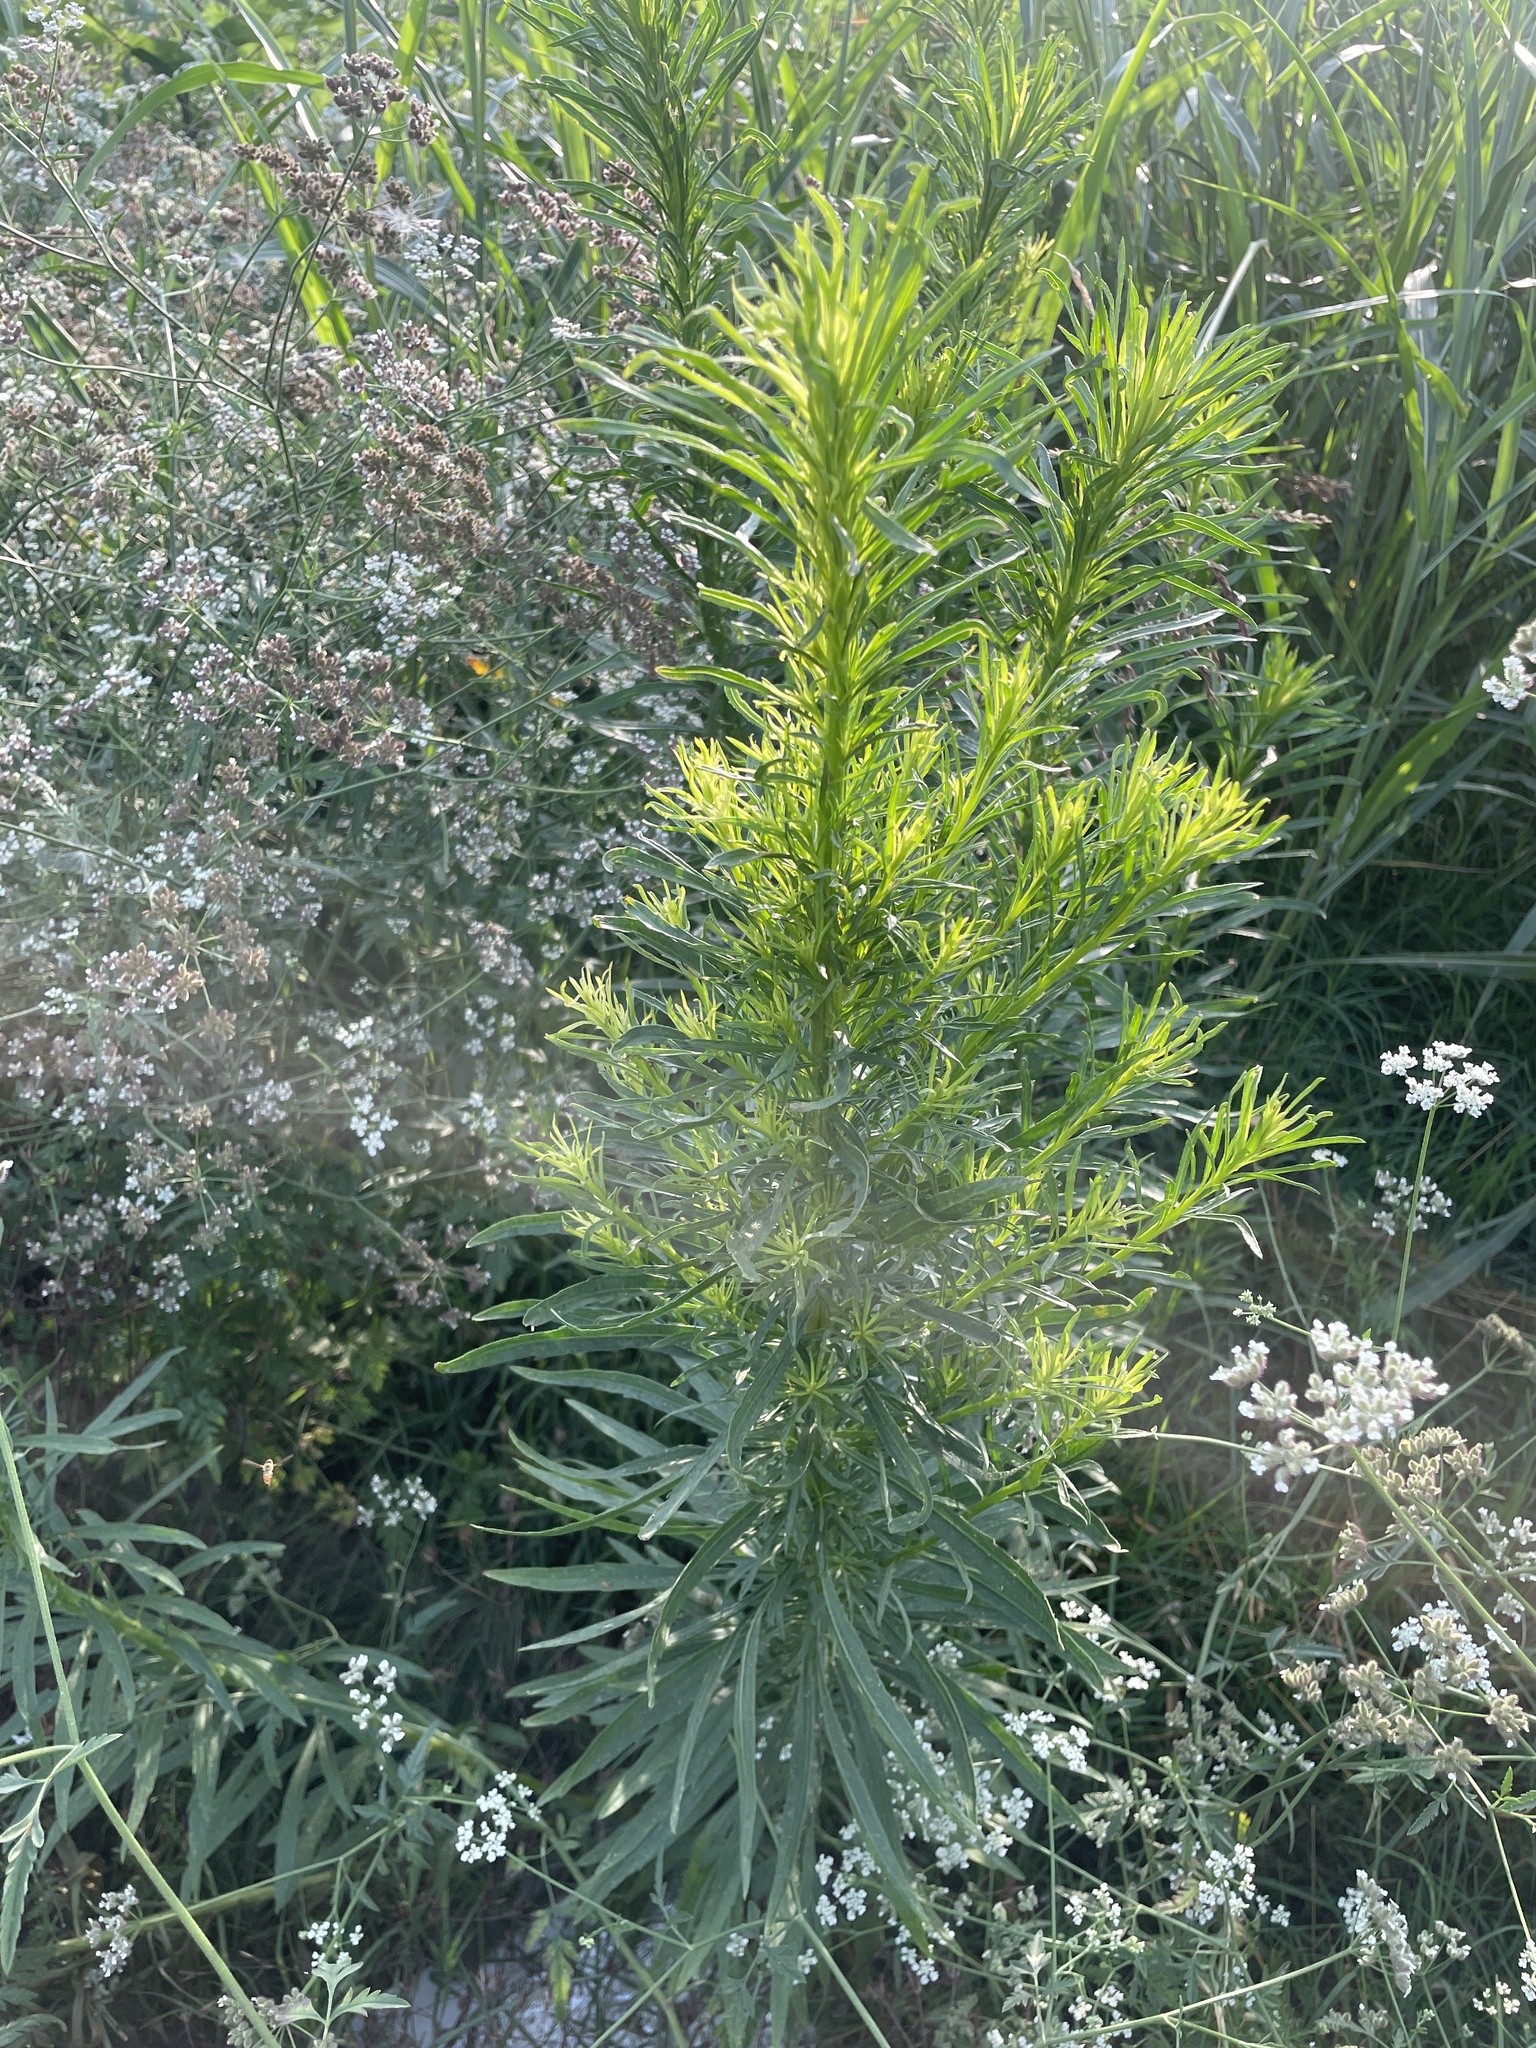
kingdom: Plantae
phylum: Tracheophyta
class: Magnoliopsida
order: Asterales
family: Asteraceae
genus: Erigeron
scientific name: Erigeron canadensis
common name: Canadian fleabane
